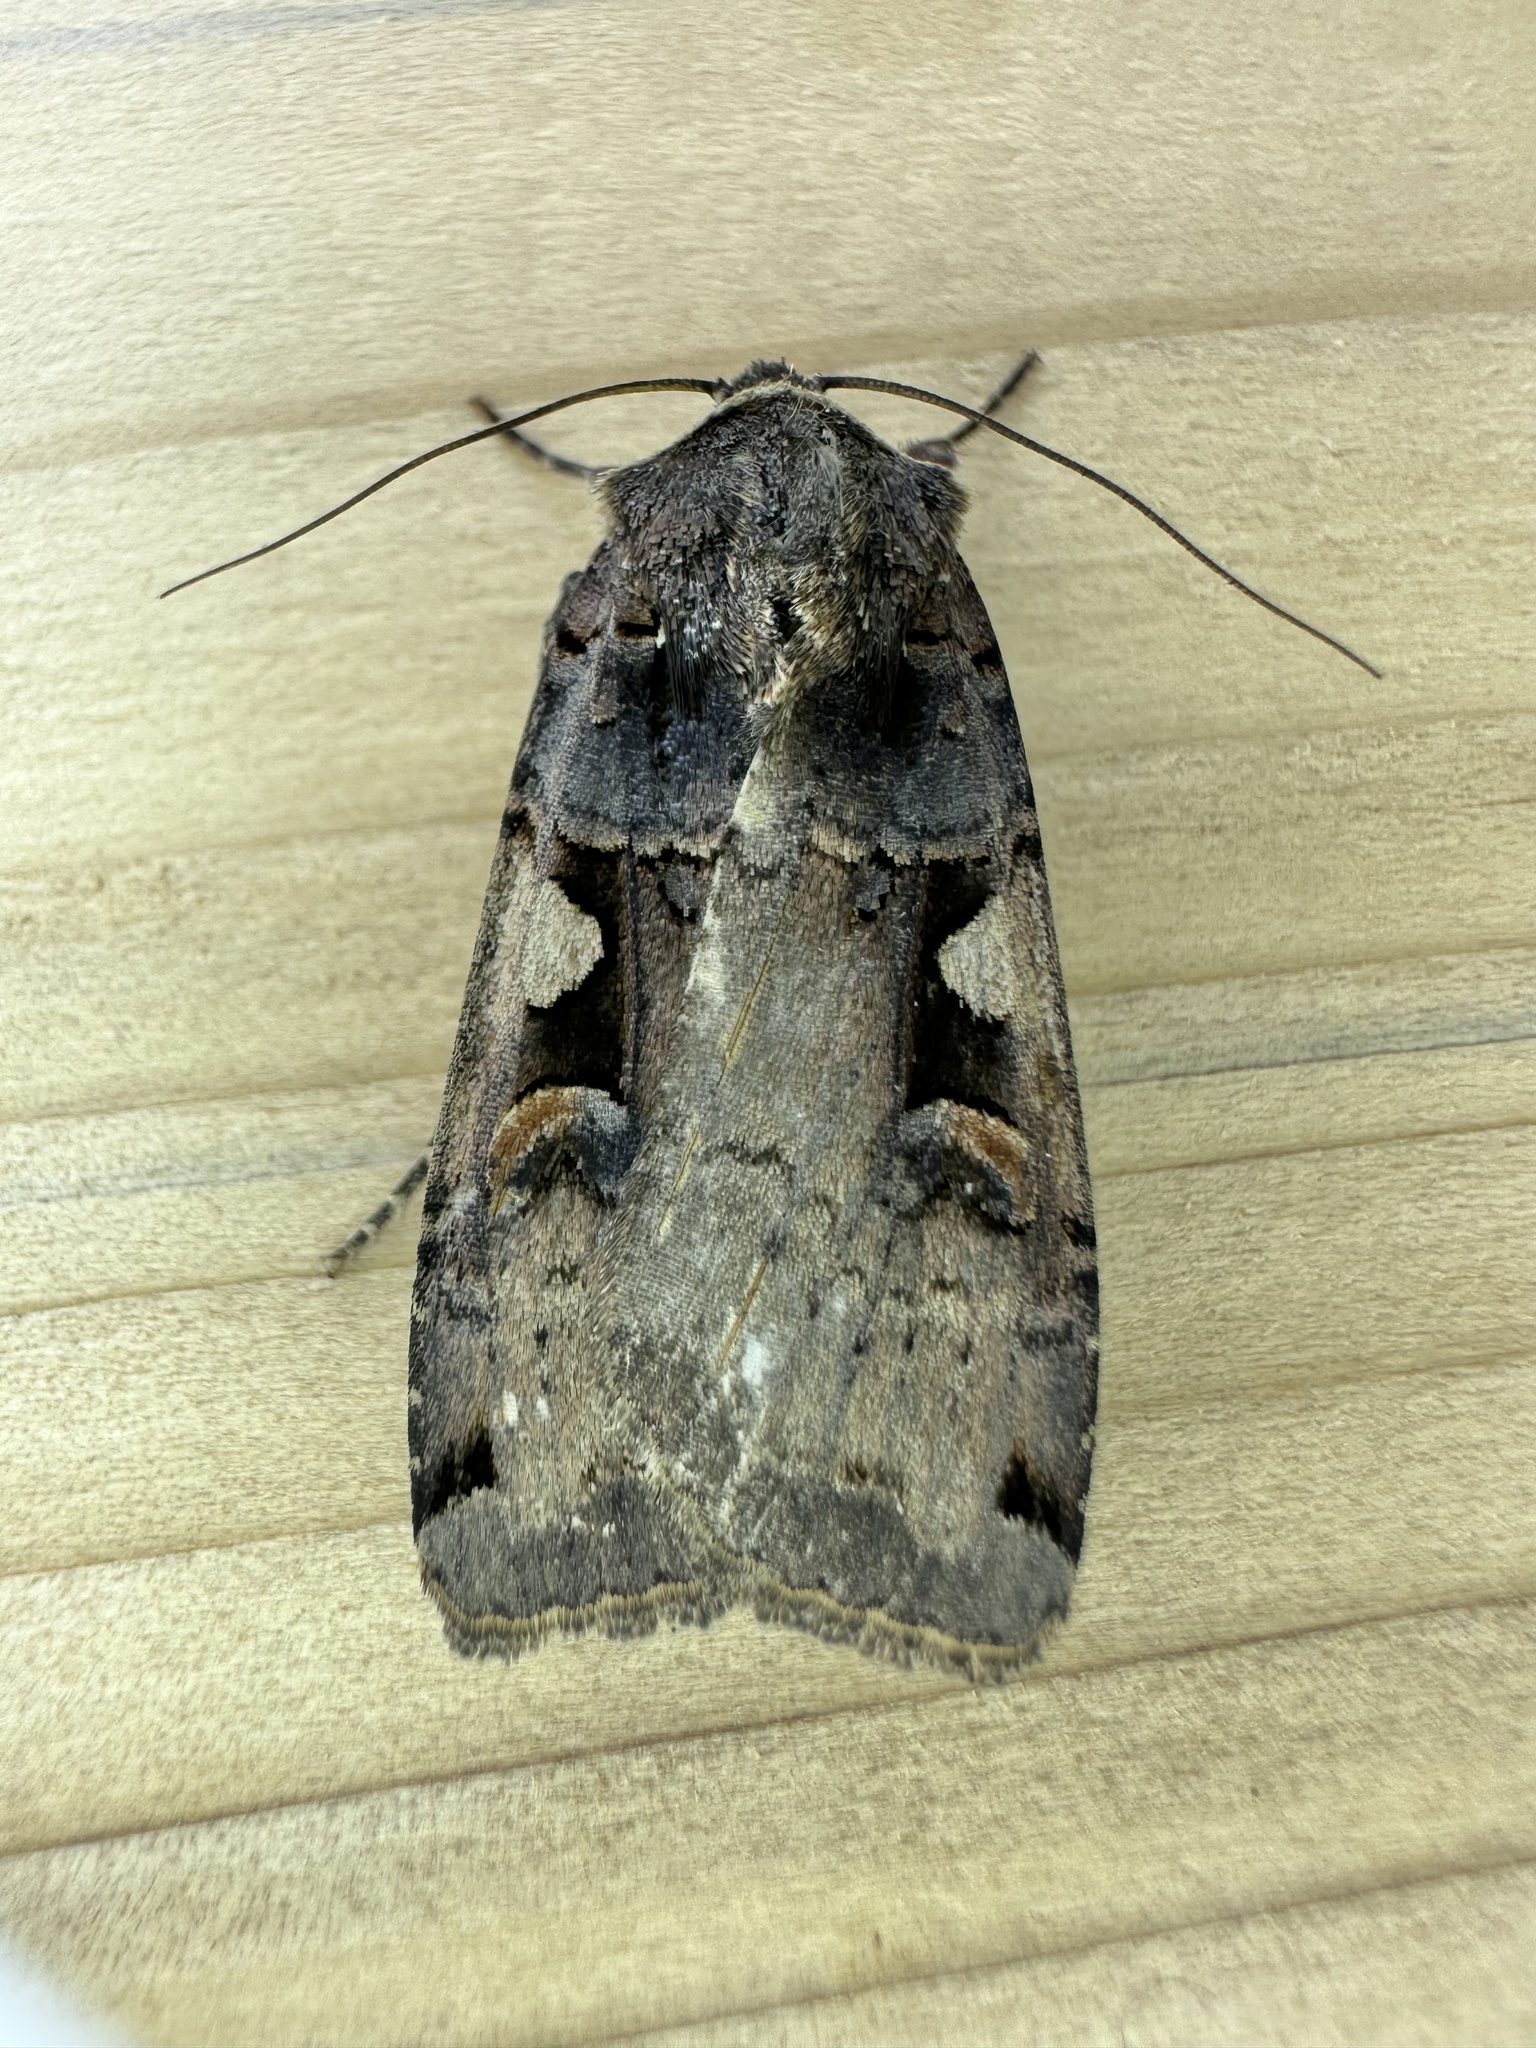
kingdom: Animalia
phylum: Arthropoda
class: Insecta
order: Lepidoptera
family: Noctuidae
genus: Xestia
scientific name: Xestia
